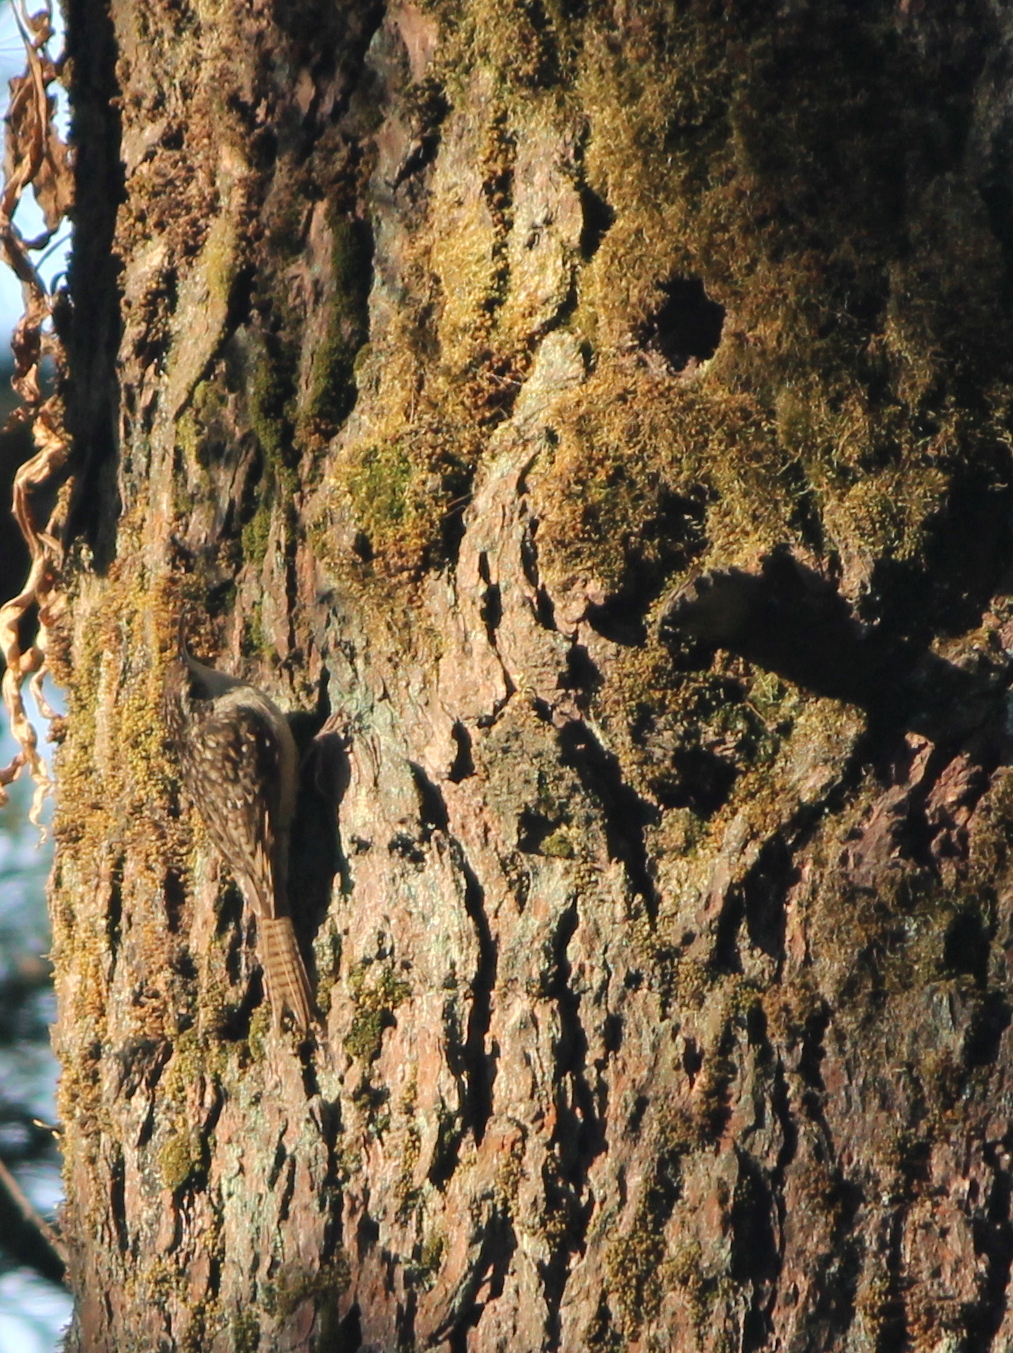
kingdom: Animalia
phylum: Chordata
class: Aves
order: Passeriformes
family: Certhiidae
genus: Certhia
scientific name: Certhia himalayana
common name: Bar-tailed treecreeper
